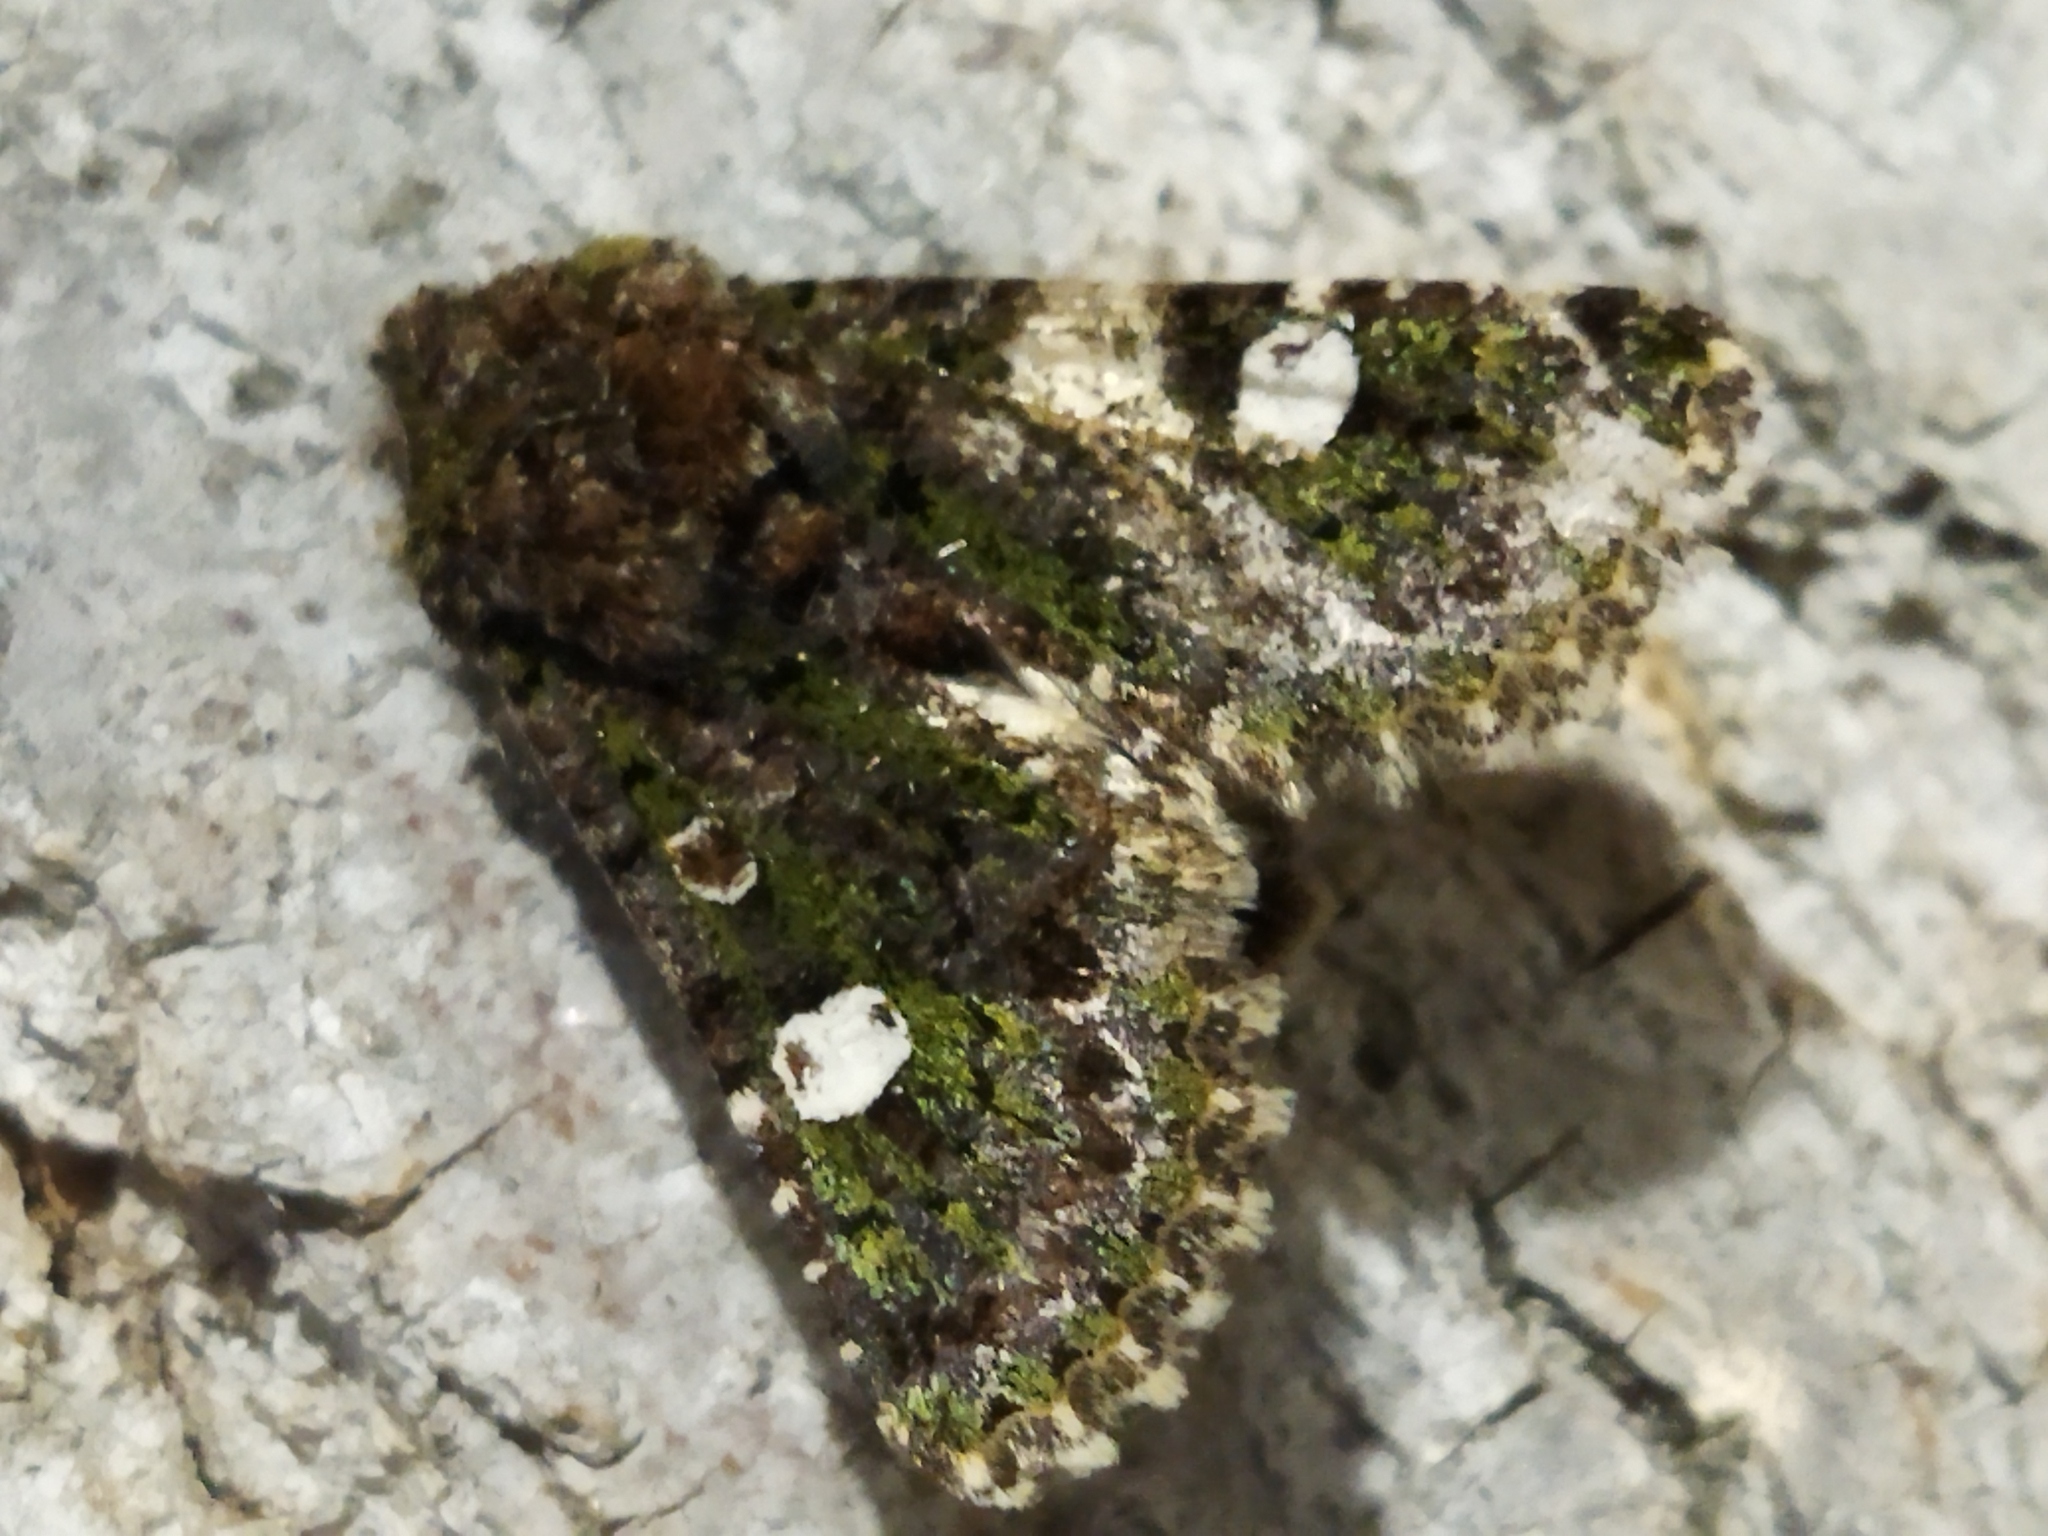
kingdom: Animalia
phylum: Arthropoda
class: Insecta
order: Lepidoptera
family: Noctuidae
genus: Valeria
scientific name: Valeria oleagina
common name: Green-brindled dot
